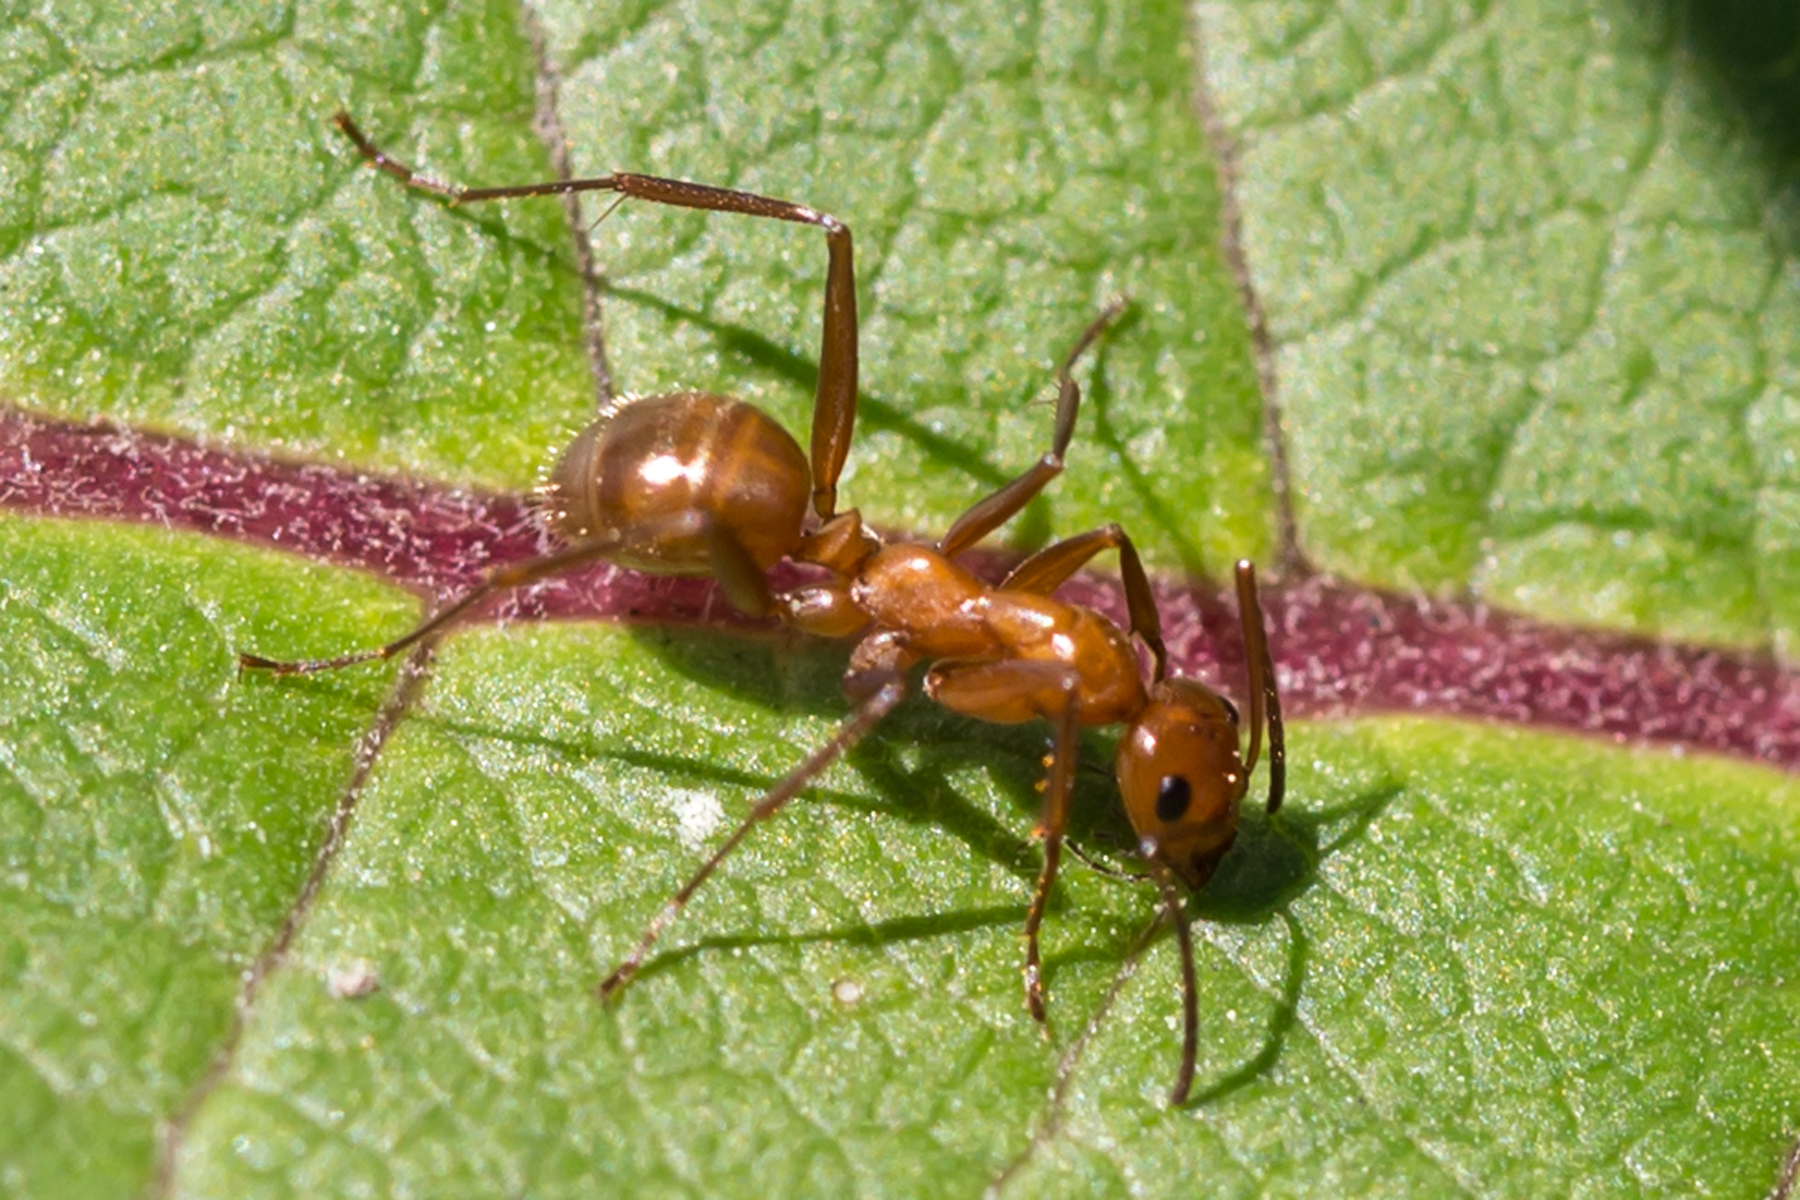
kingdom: Animalia
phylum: Arthropoda
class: Insecta
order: Hymenoptera
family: Formicidae
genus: Formica
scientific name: Formica incerta
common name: Uncertain field ant
